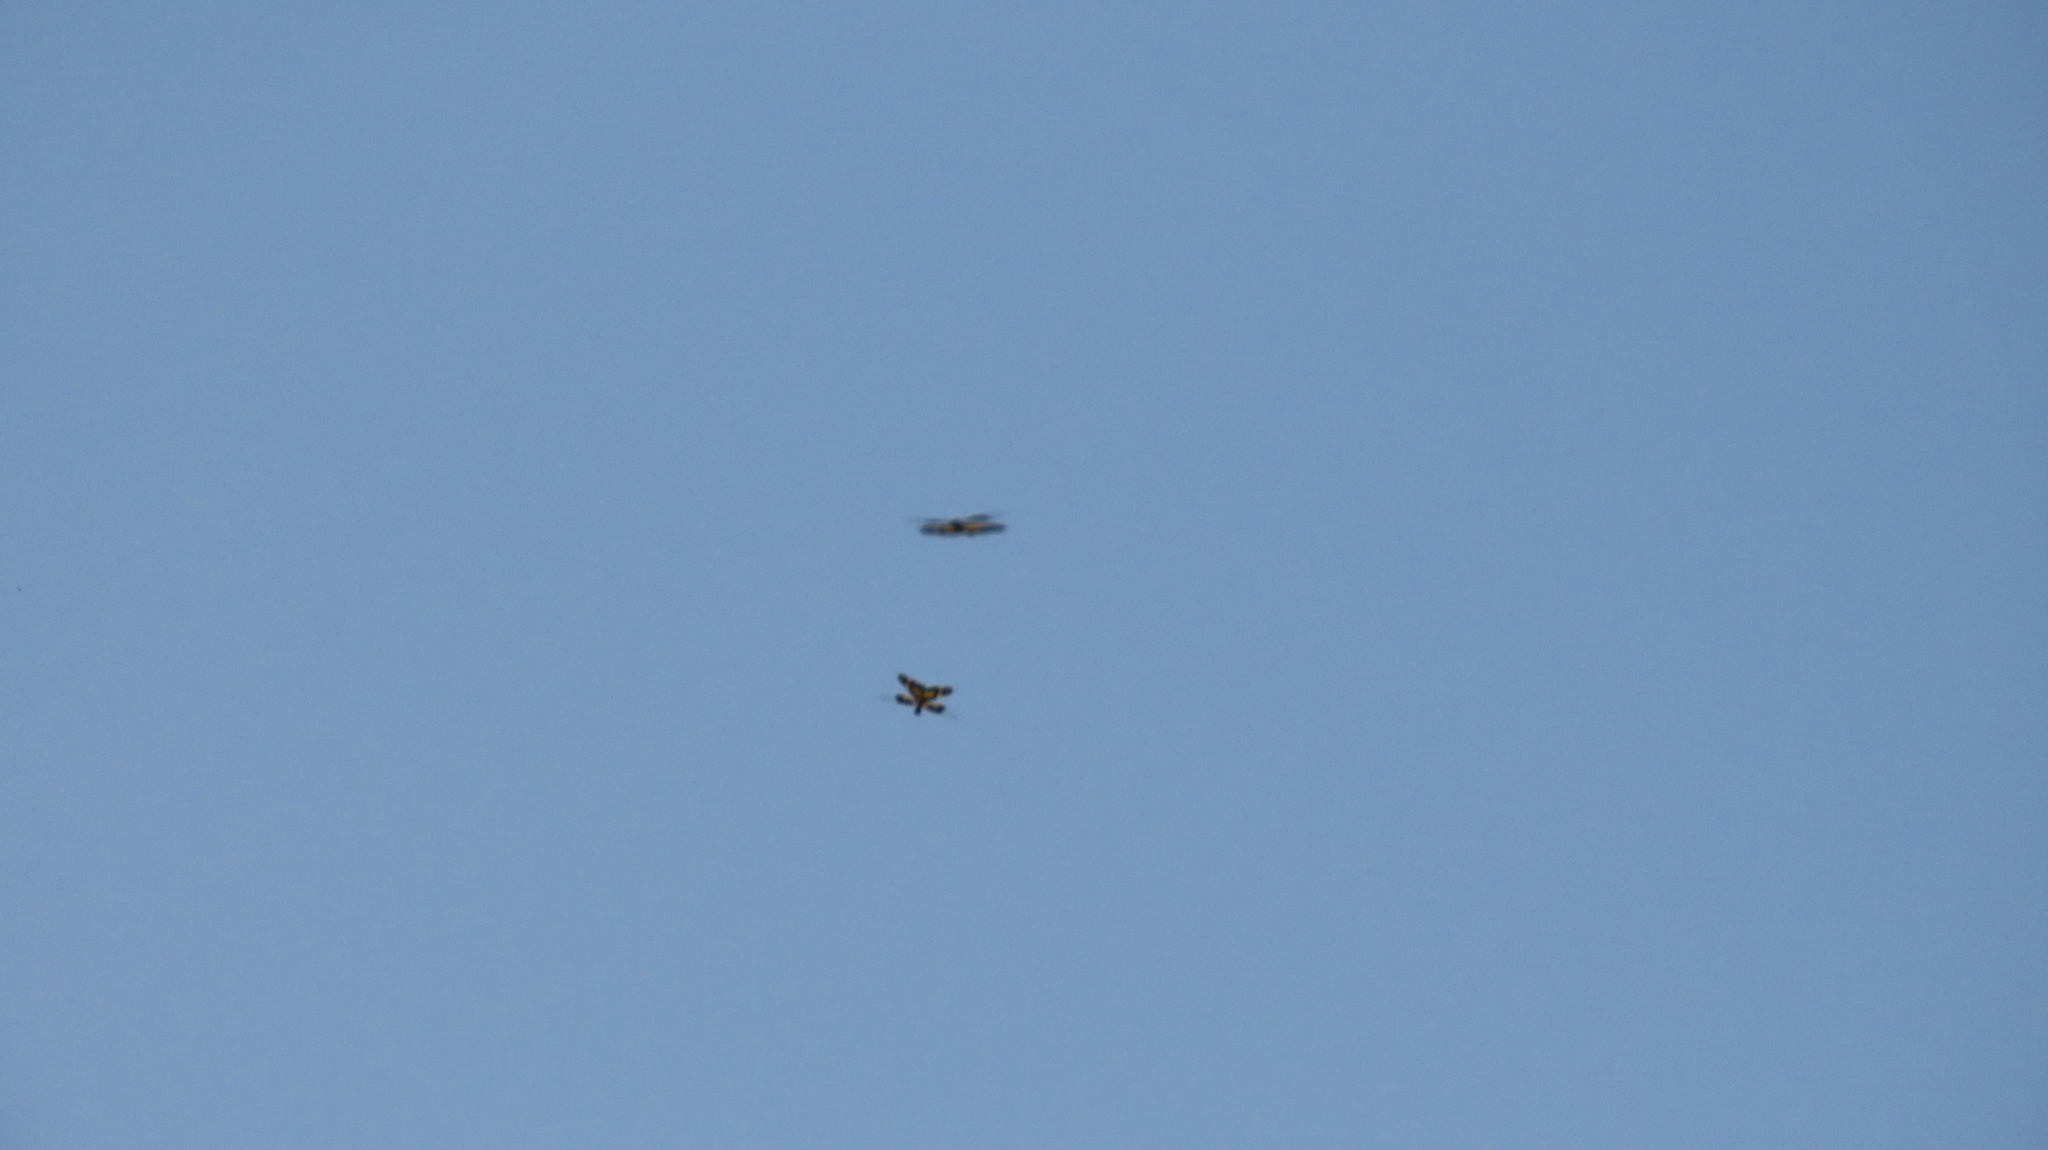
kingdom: Animalia
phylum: Arthropoda
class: Insecta
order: Odonata
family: Libellulidae
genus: Rhyothemis
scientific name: Rhyothemis variegata
